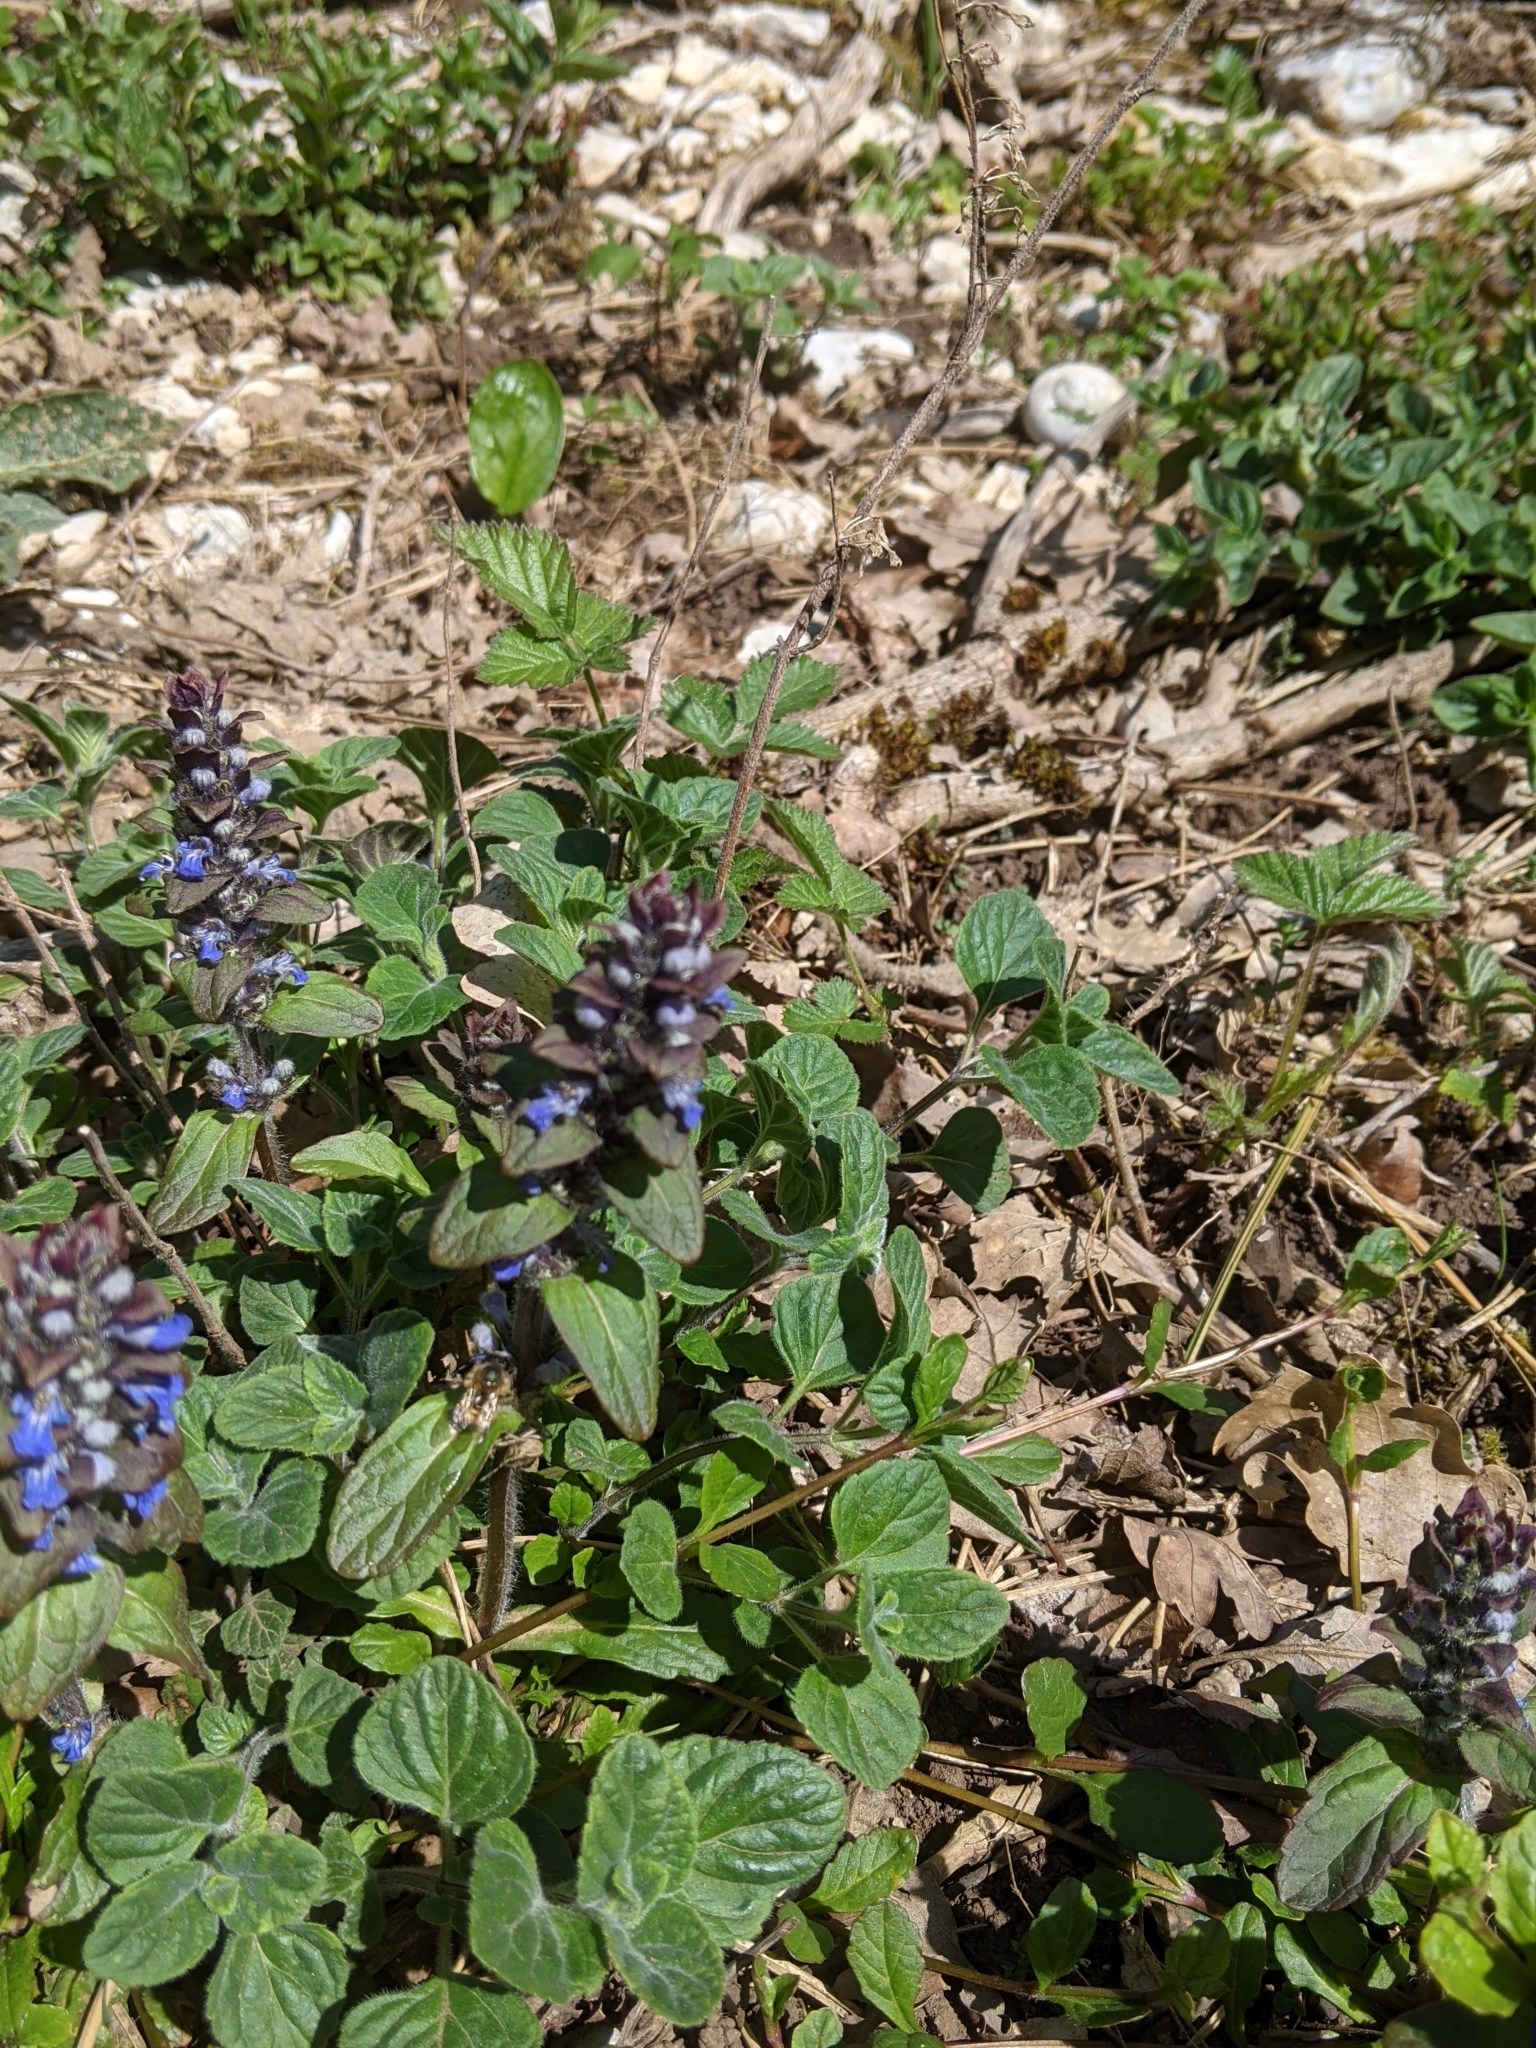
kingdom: Plantae
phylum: Tracheophyta
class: Magnoliopsida
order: Lamiales
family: Lamiaceae
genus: Ajuga
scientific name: Ajuga reptans
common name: Bugle
